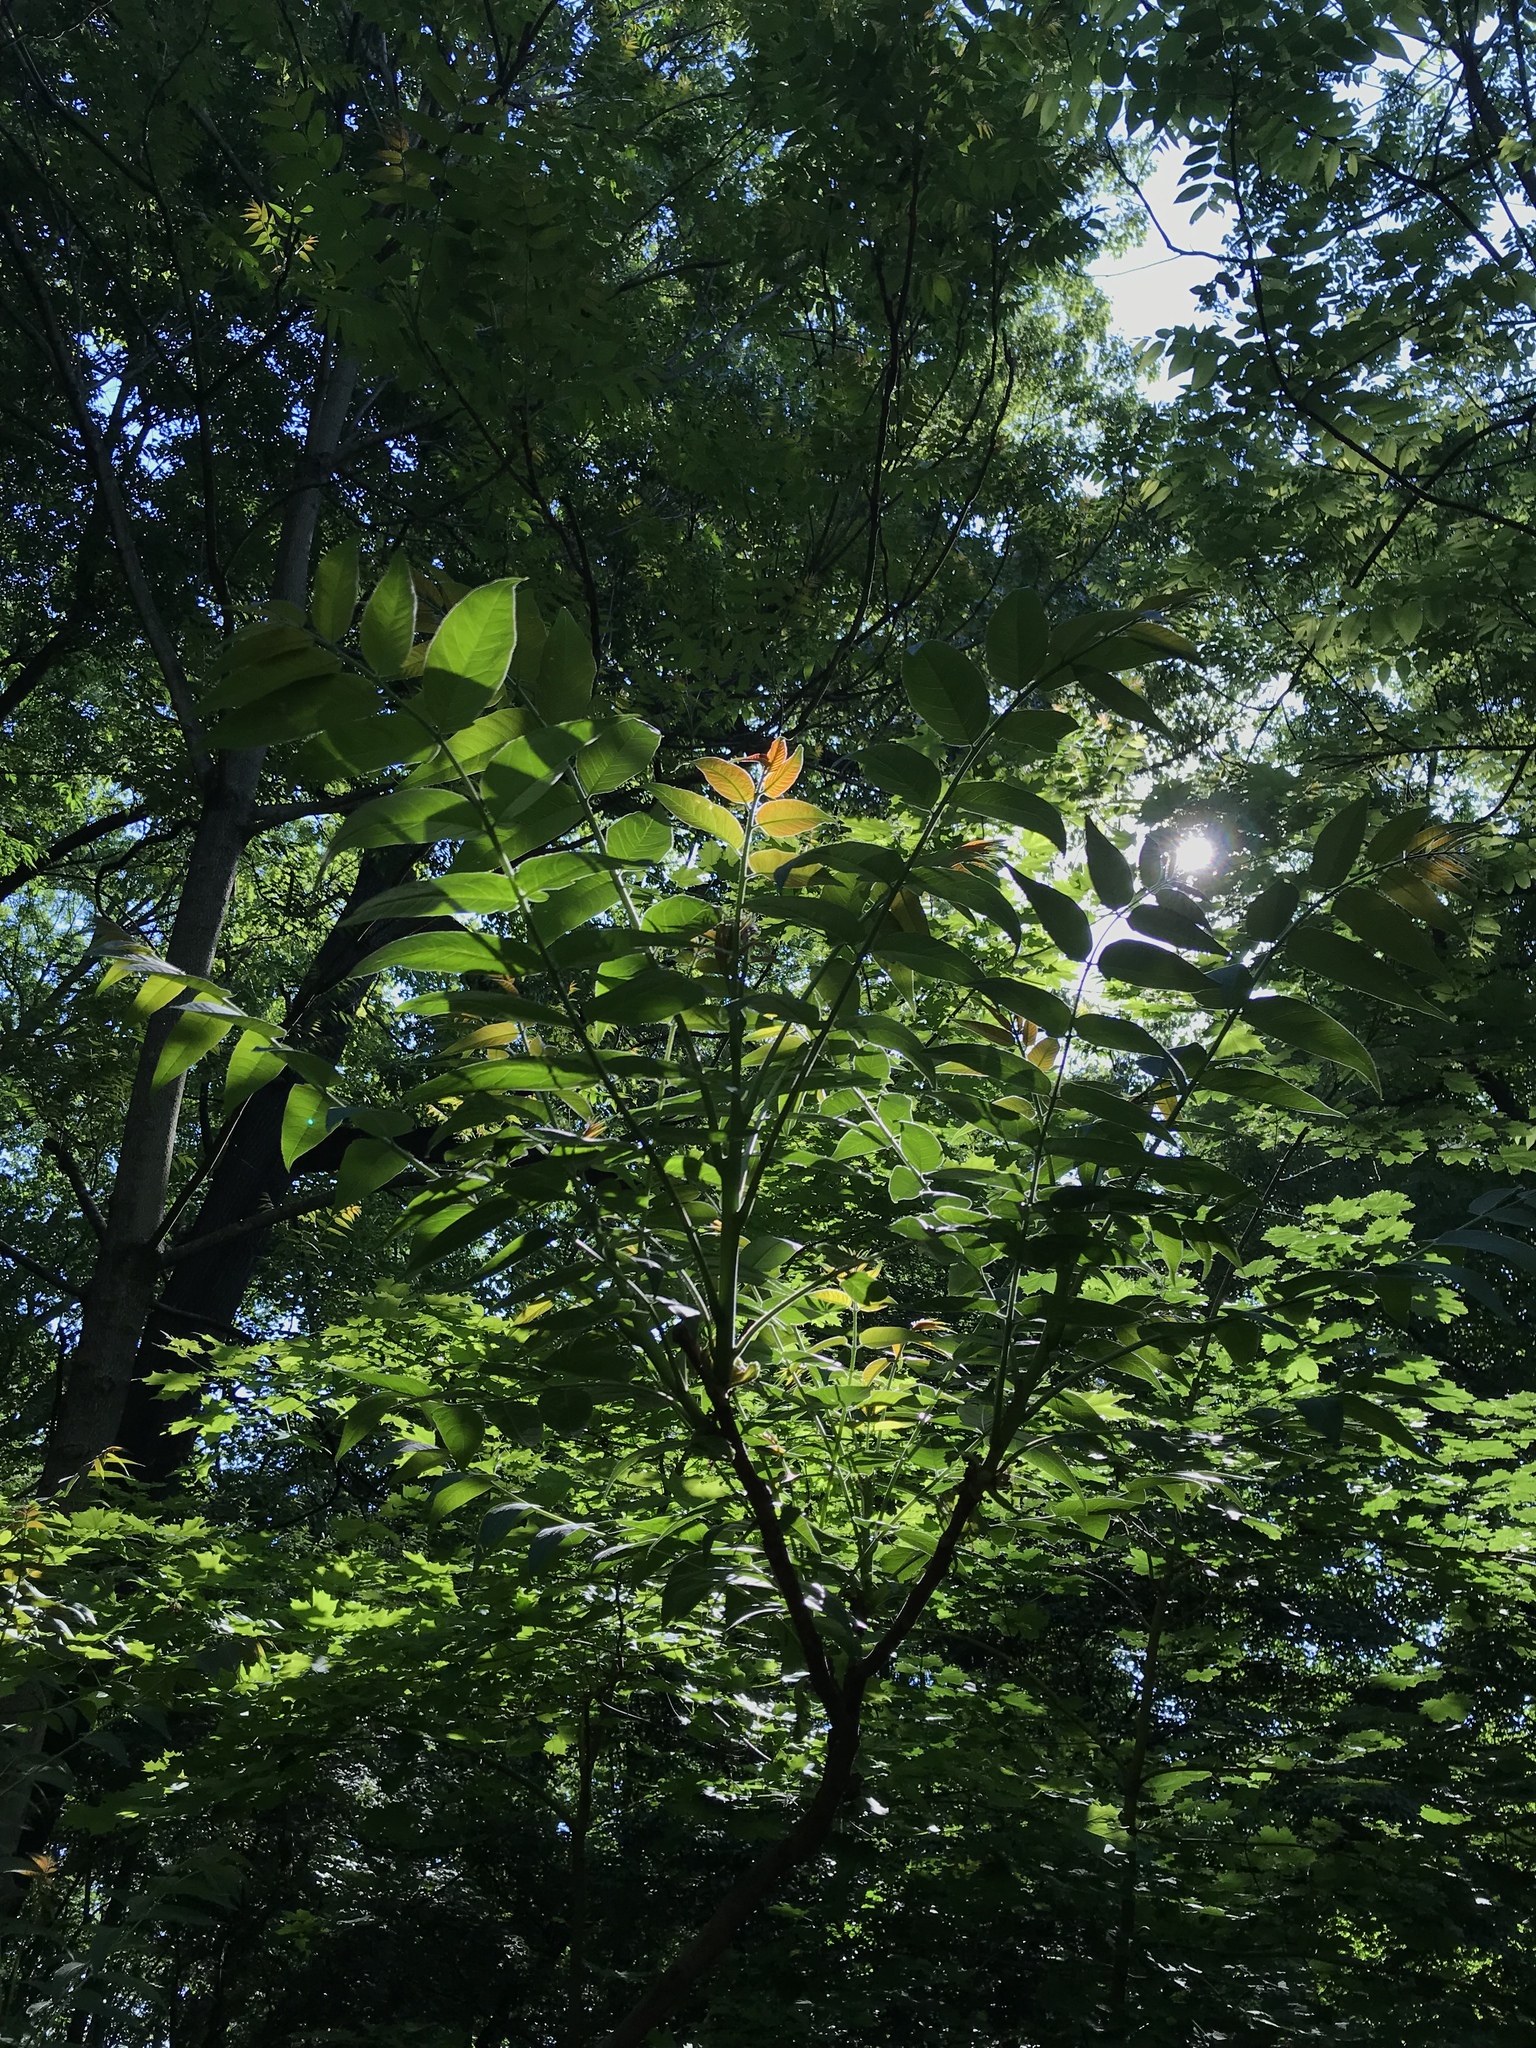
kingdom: Plantae
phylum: Tracheophyta
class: Magnoliopsida
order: Sapindales
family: Simaroubaceae
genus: Ailanthus
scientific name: Ailanthus altissima
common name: Tree-of-heaven
